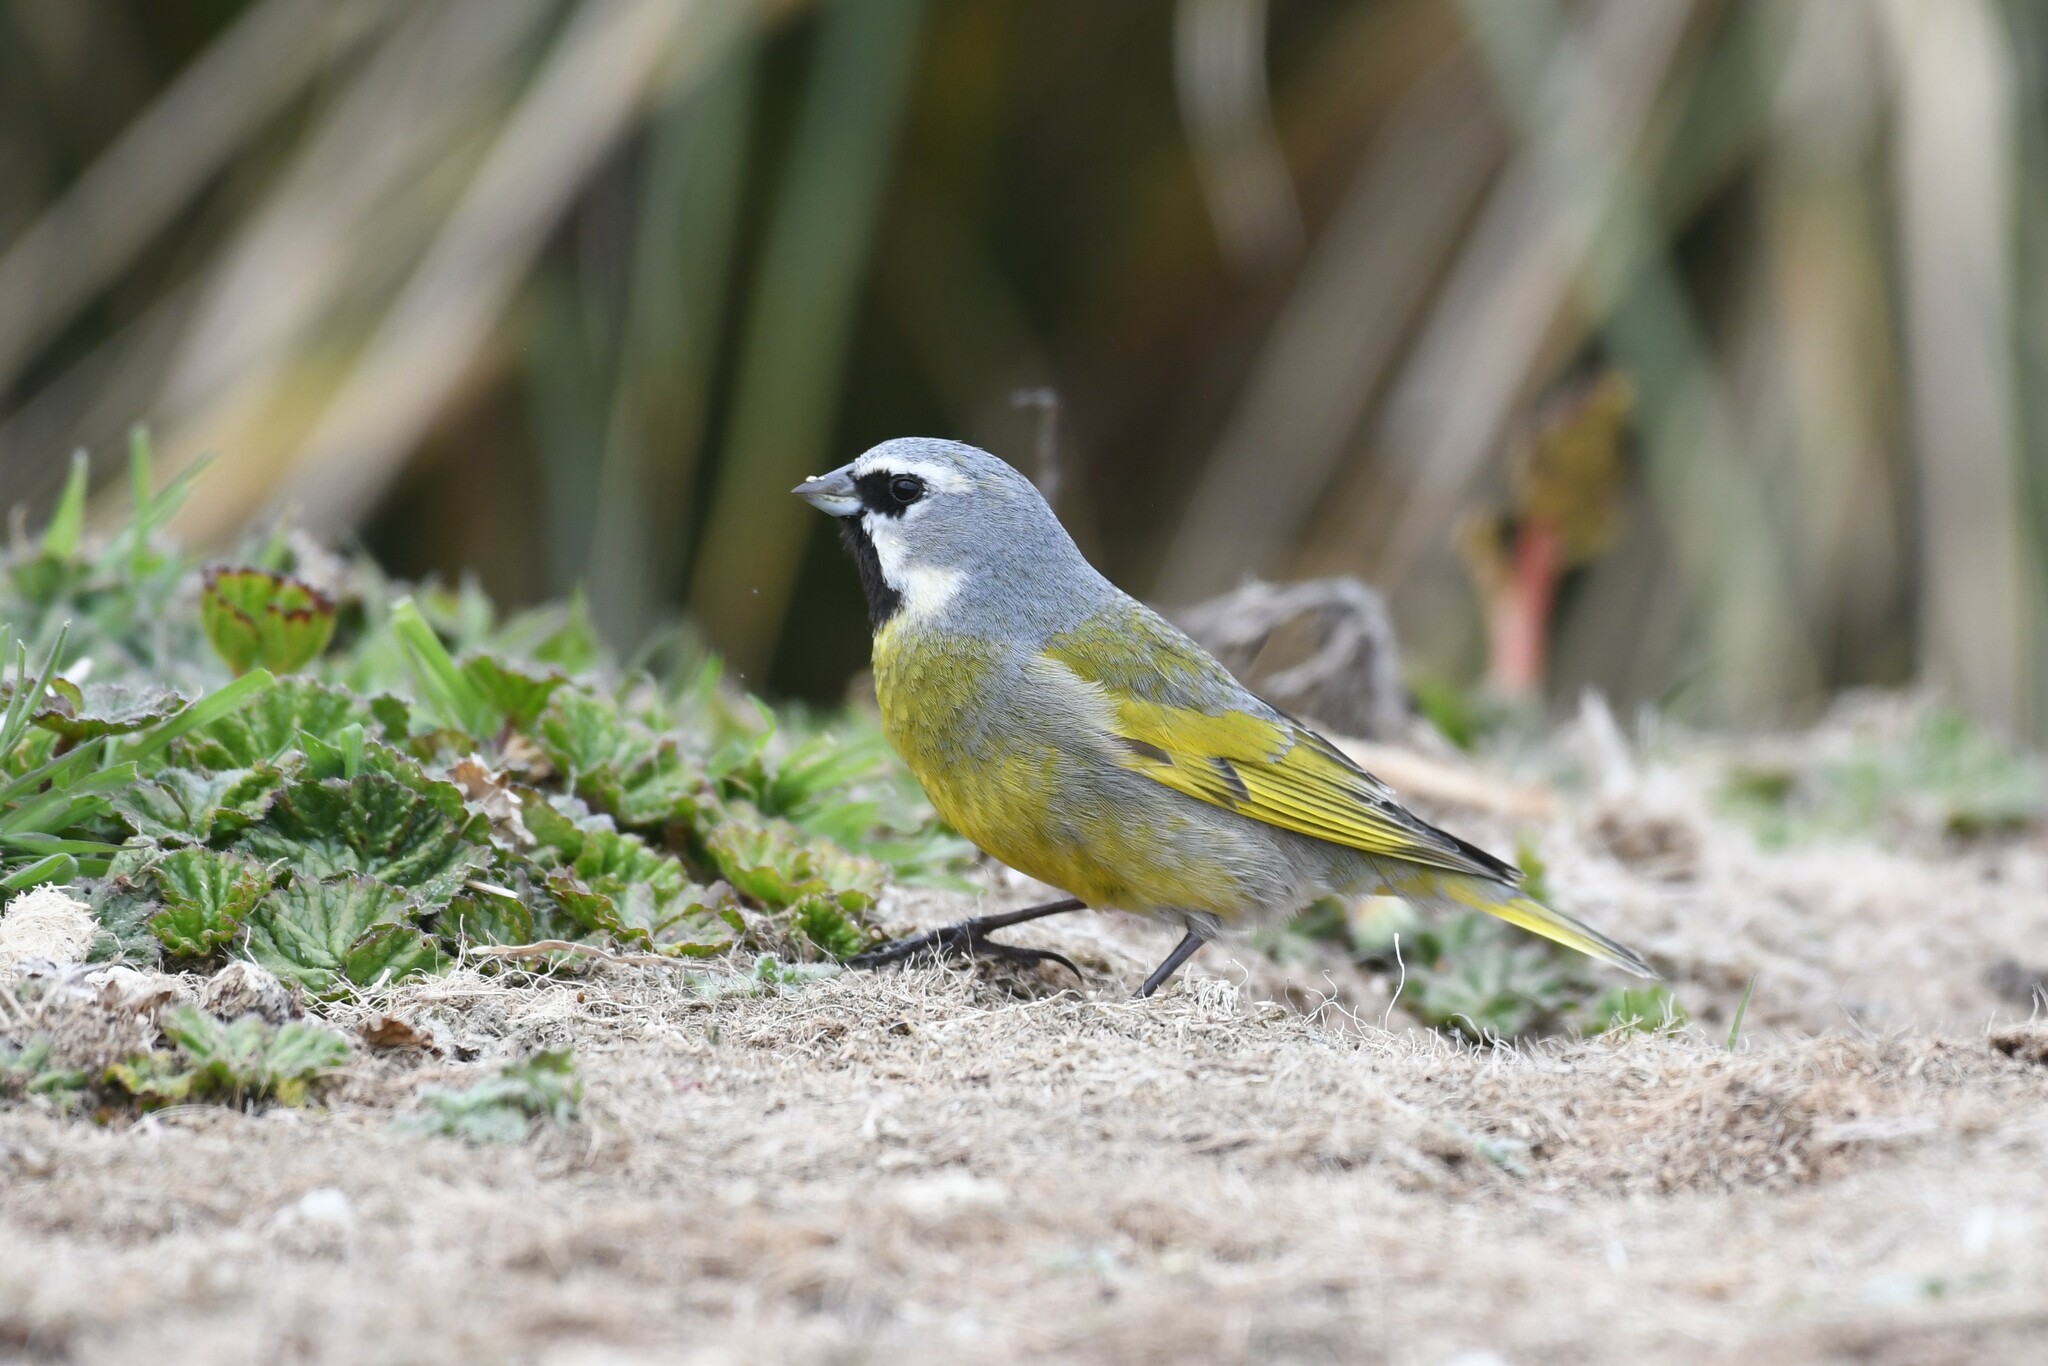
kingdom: Animalia
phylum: Chordata
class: Aves
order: Passeriformes
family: Thraupidae
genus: Melanodera
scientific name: Melanodera melanodera
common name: White-bridled finch
